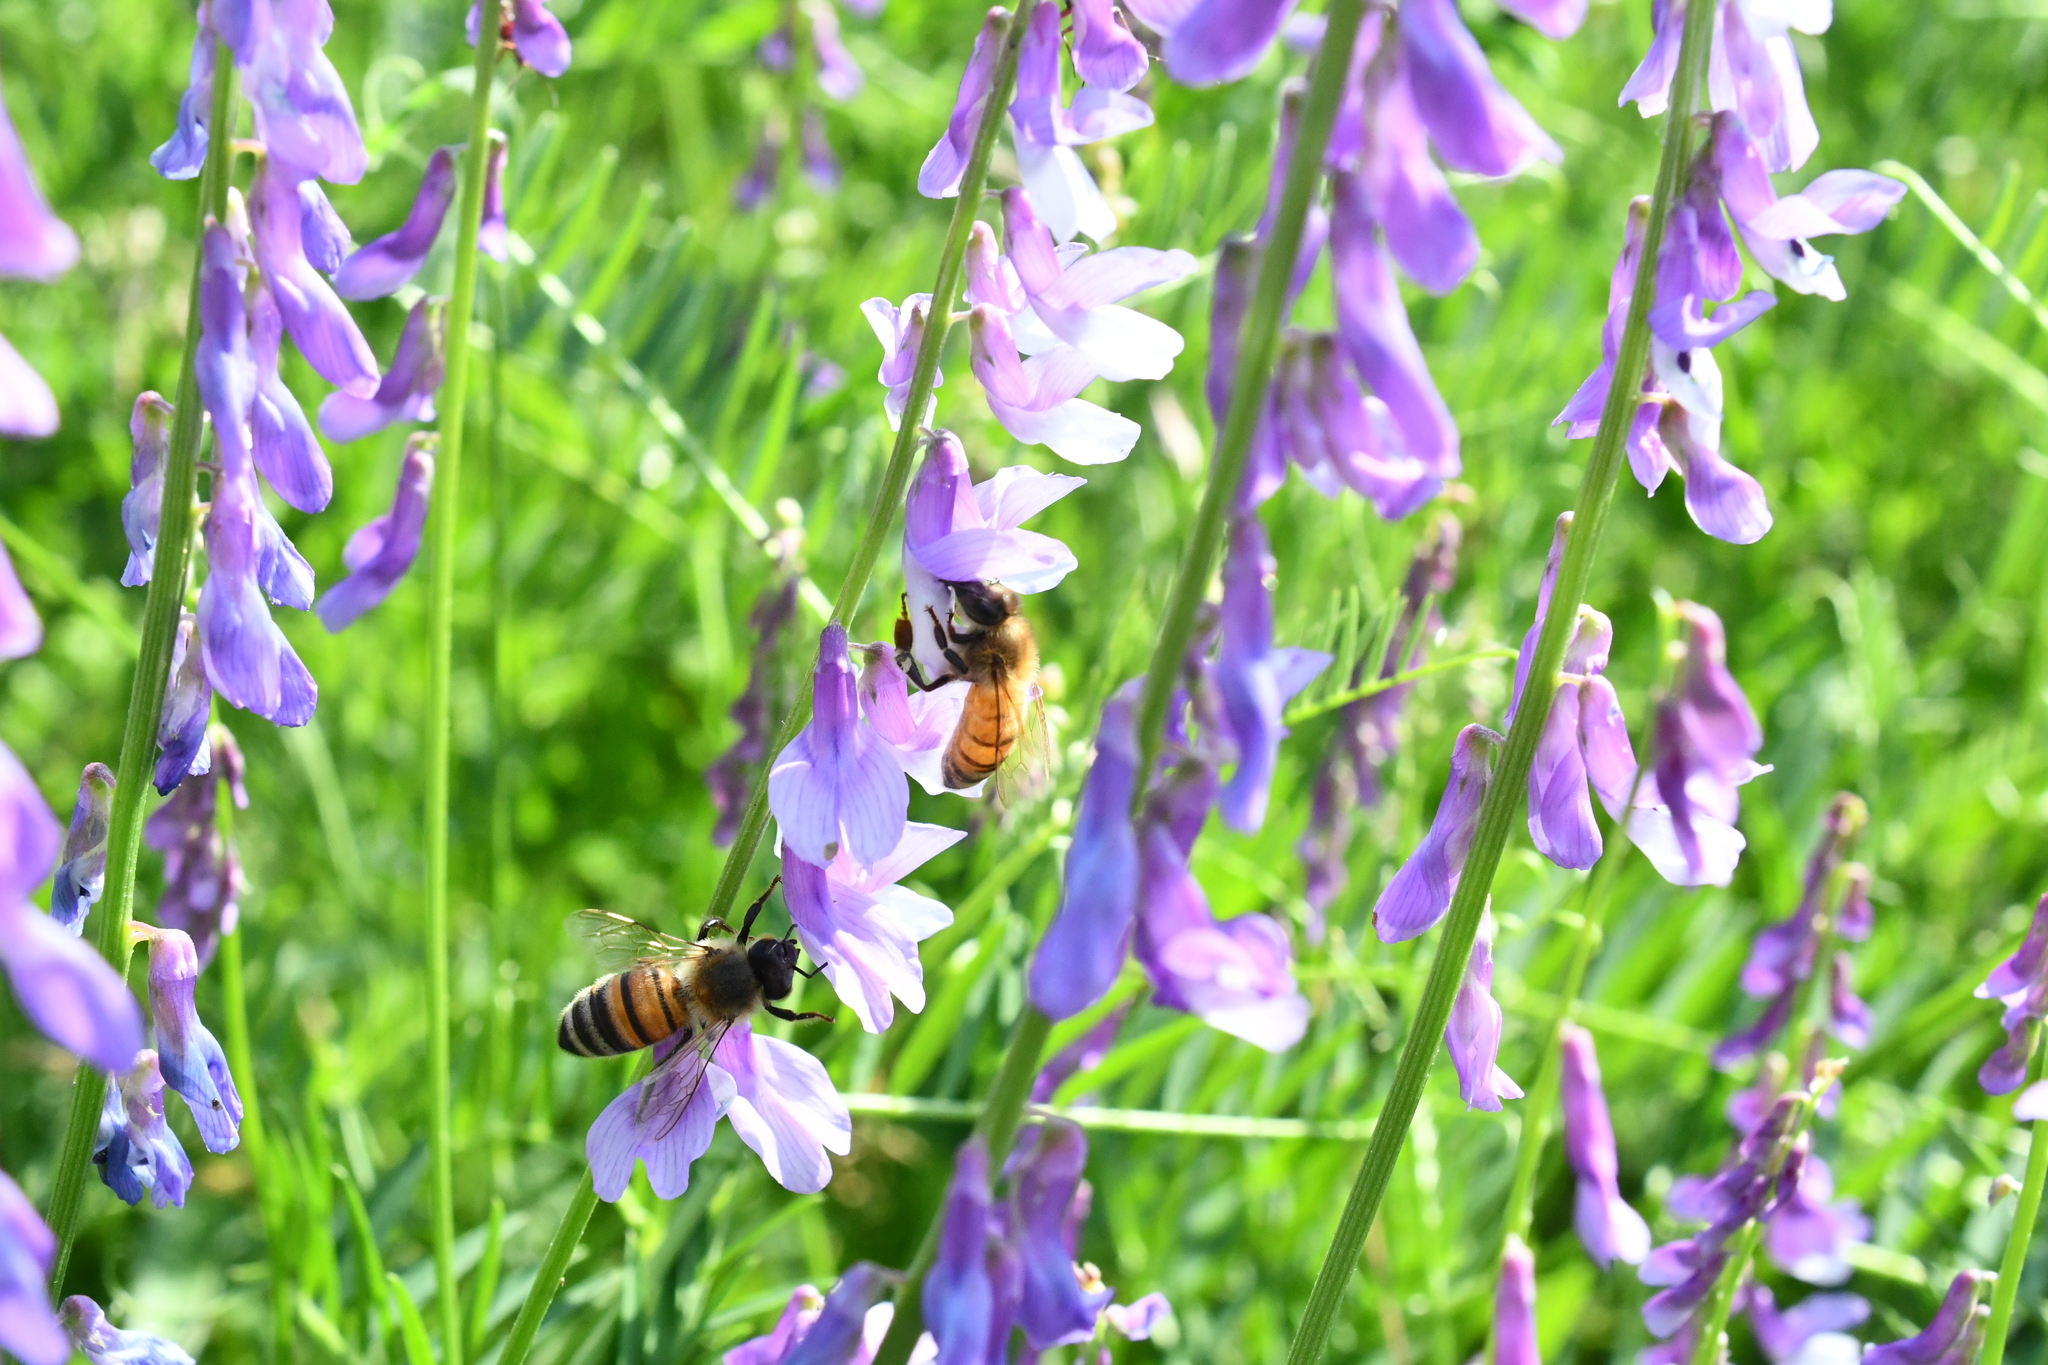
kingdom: Animalia
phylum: Arthropoda
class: Insecta
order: Hymenoptera
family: Apidae
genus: Apis
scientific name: Apis mellifera
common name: Honey bee
